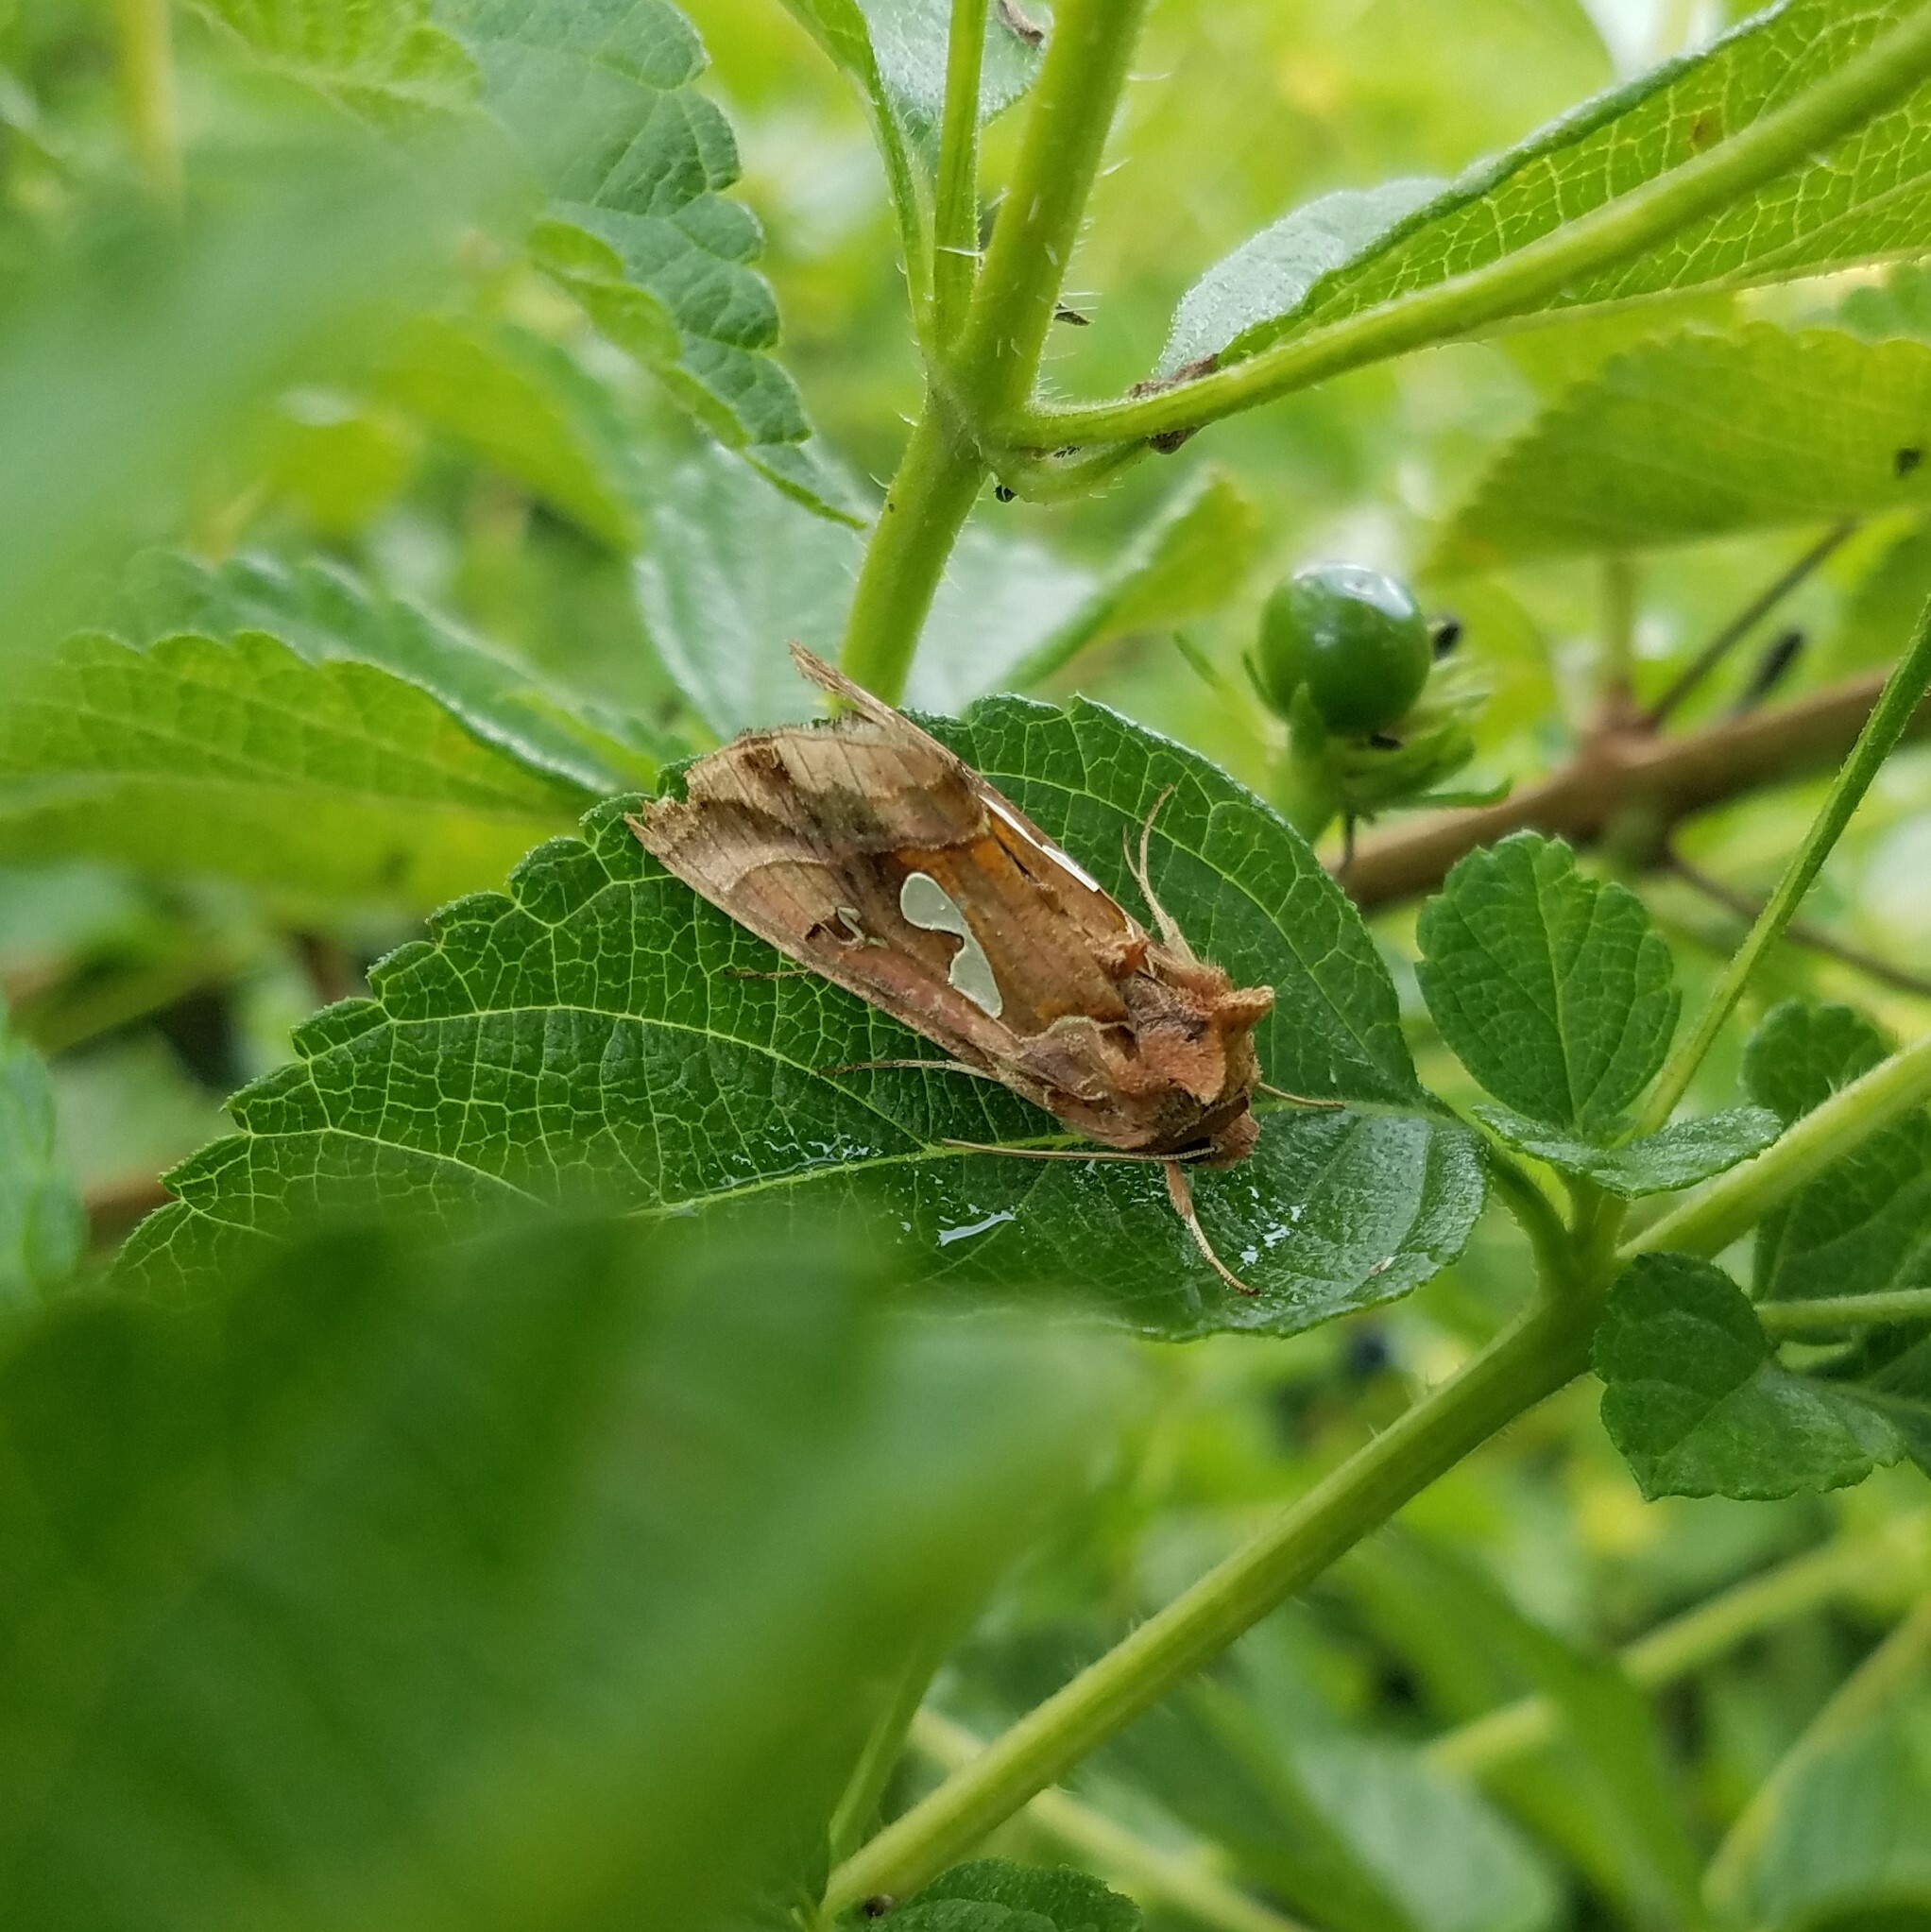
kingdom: Animalia
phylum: Arthropoda
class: Insecta
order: Lepidoptera
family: Noctuidae
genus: Megalographa
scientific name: Megalographa biloba
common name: Cutworm
